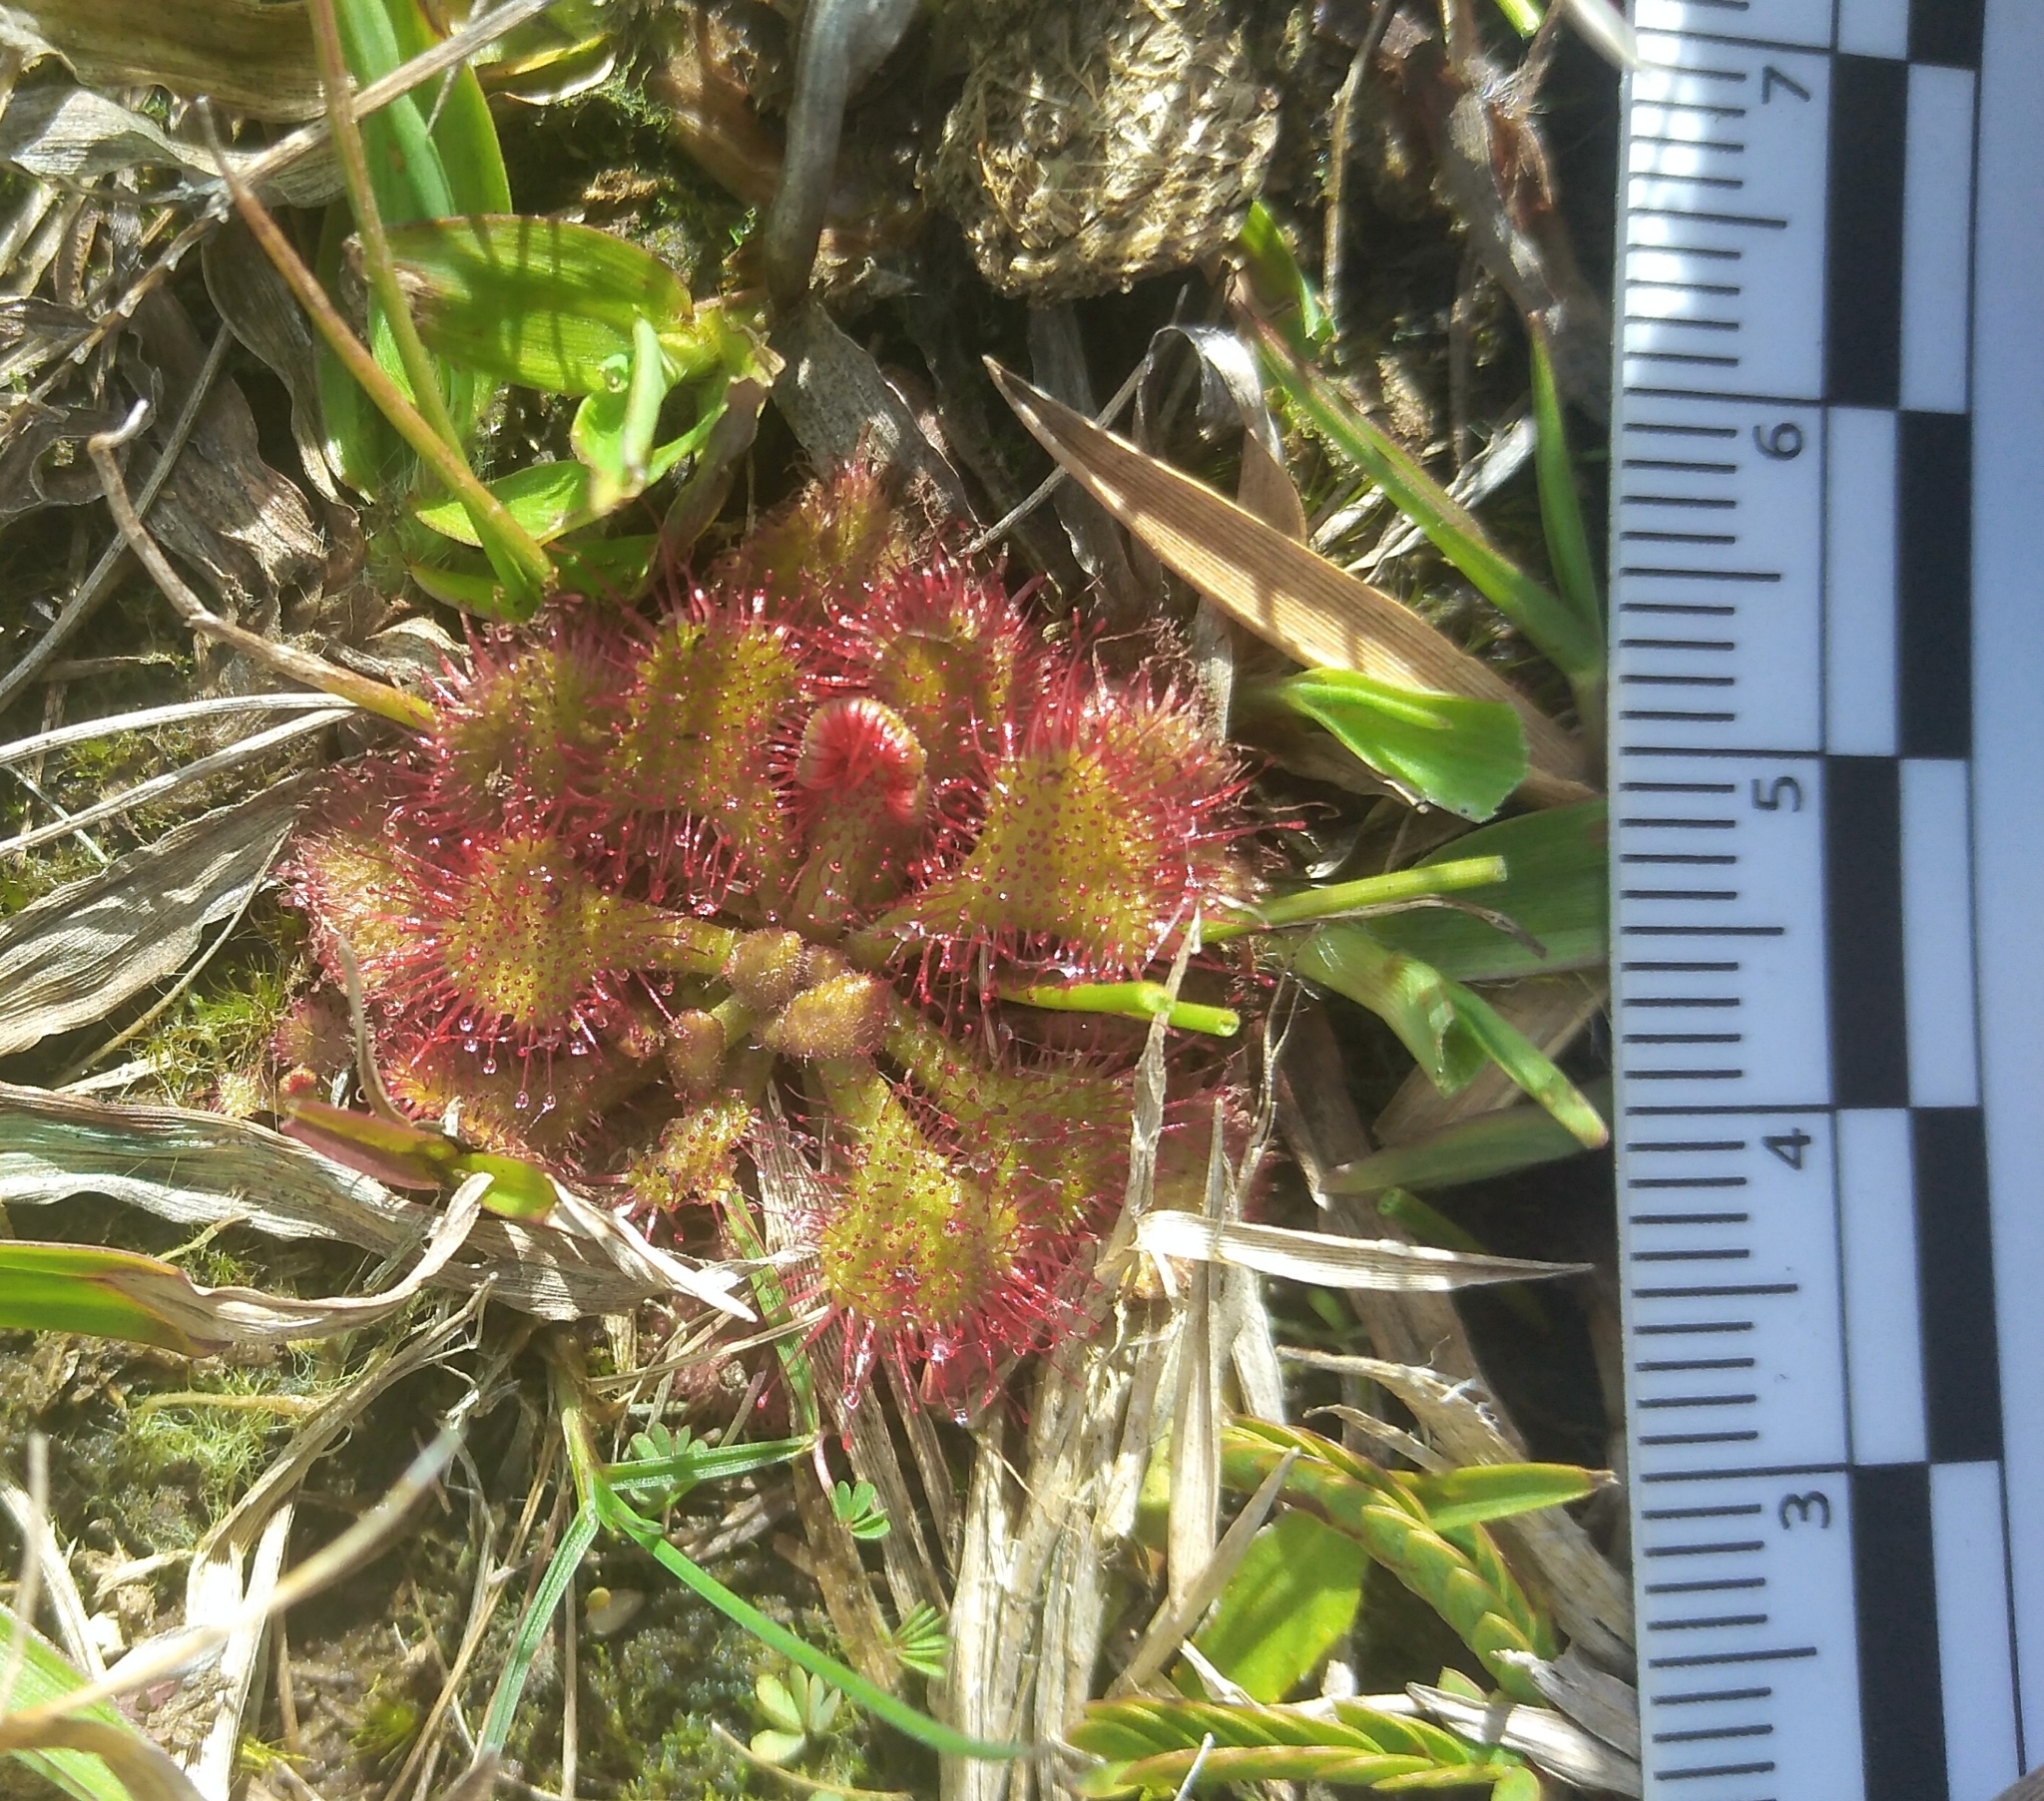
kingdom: Plantae
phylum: Tracheophyta
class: Magnoliopsida
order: Caryophyllales
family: Droseraceae
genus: Drosera
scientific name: Drosera brevifolia
